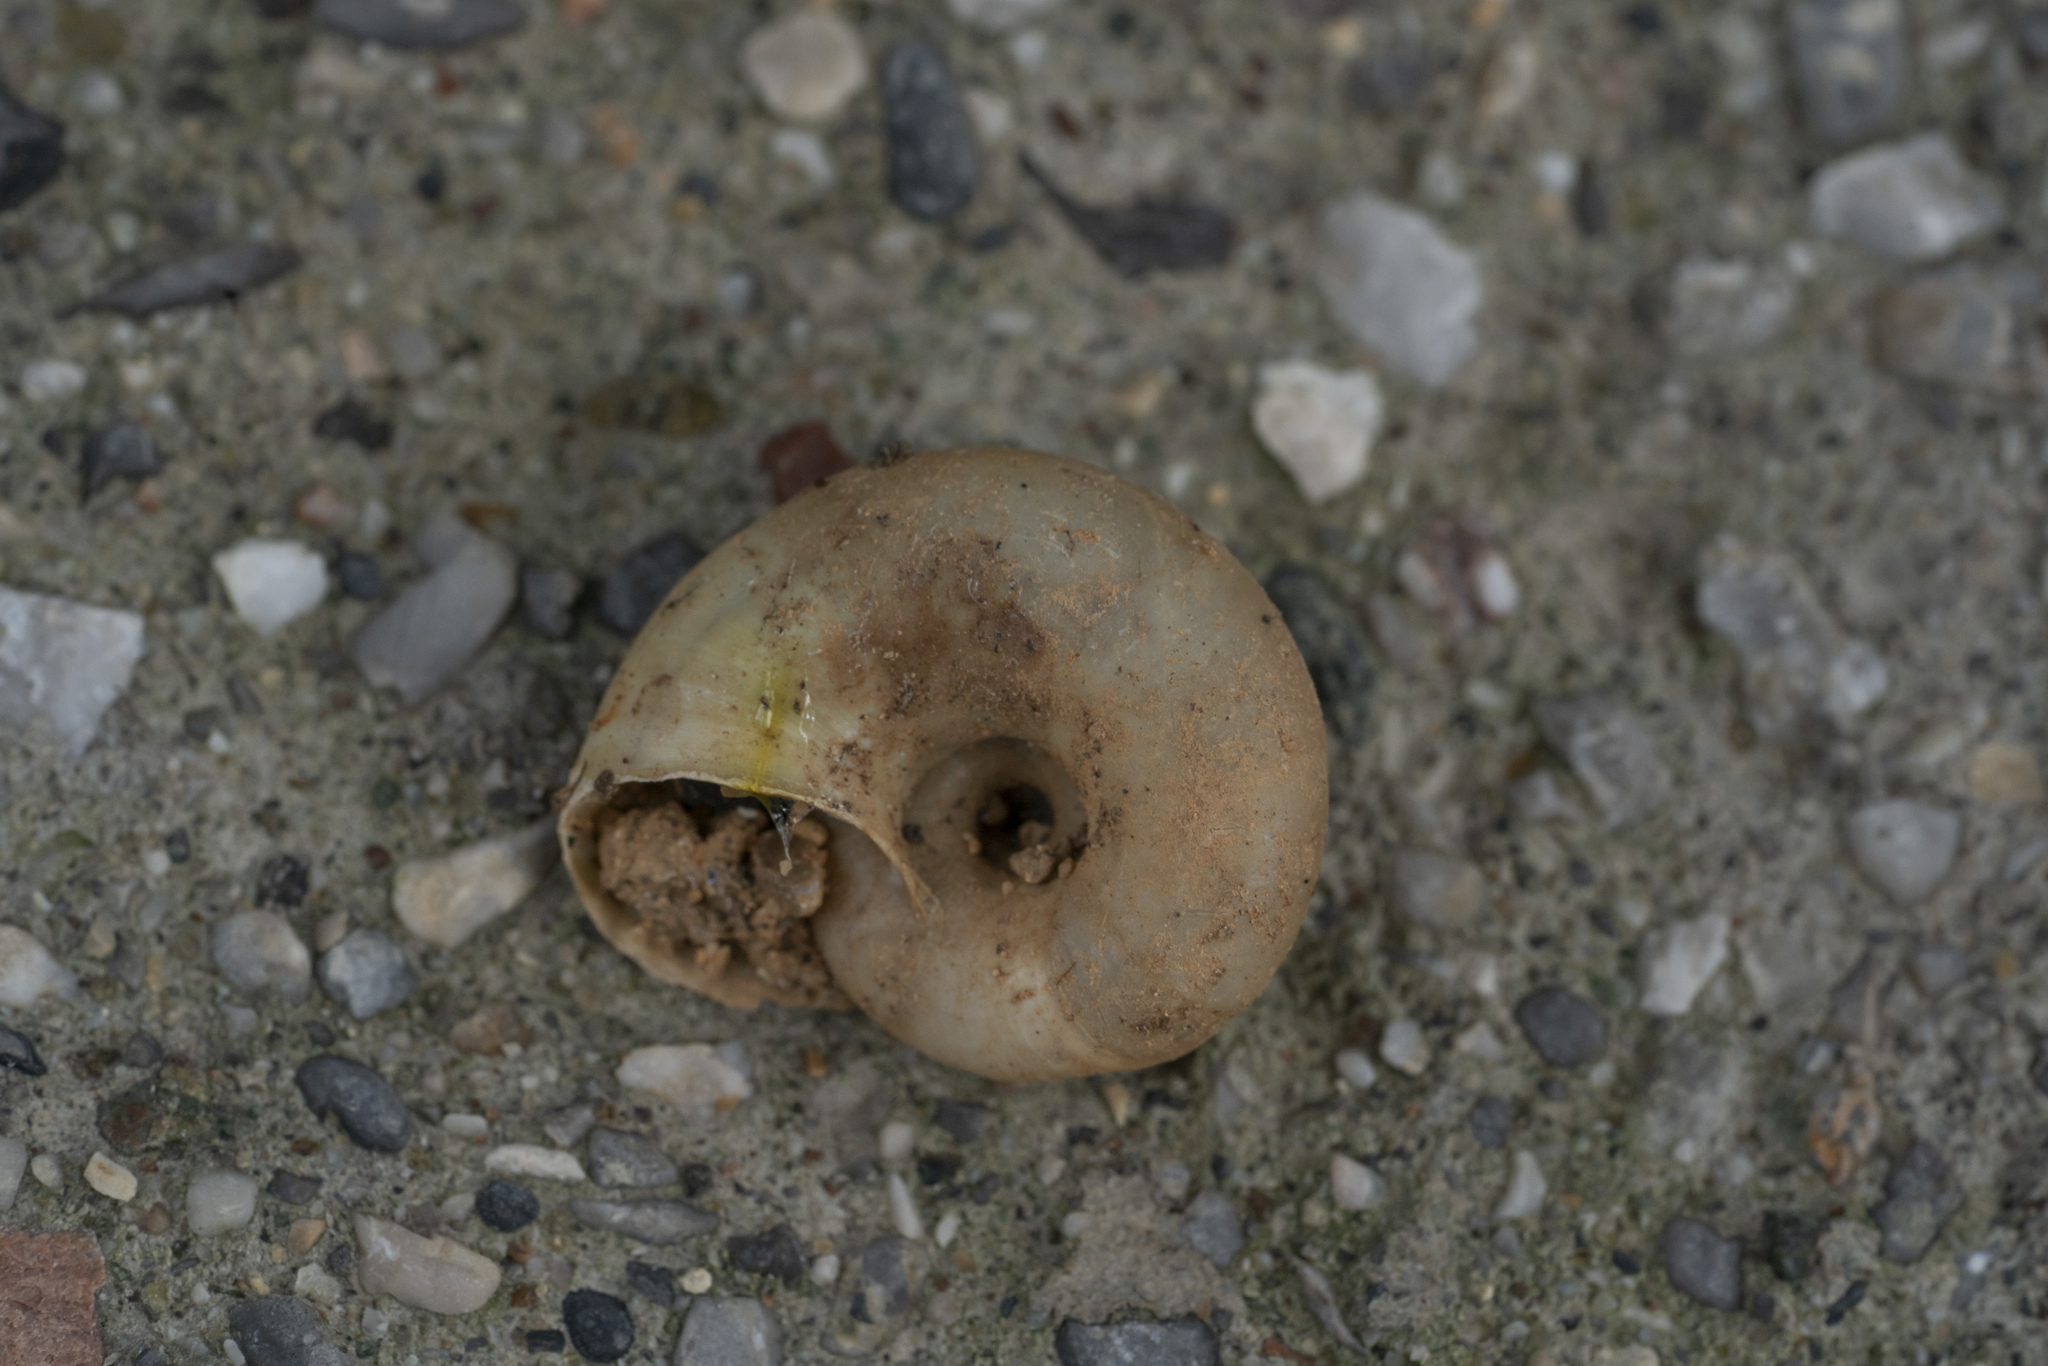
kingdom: Animalia
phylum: Mollusca
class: Gastropoda
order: Stylommatophora
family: Oxychilidae
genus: Eopolita
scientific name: Eopolita protensa
